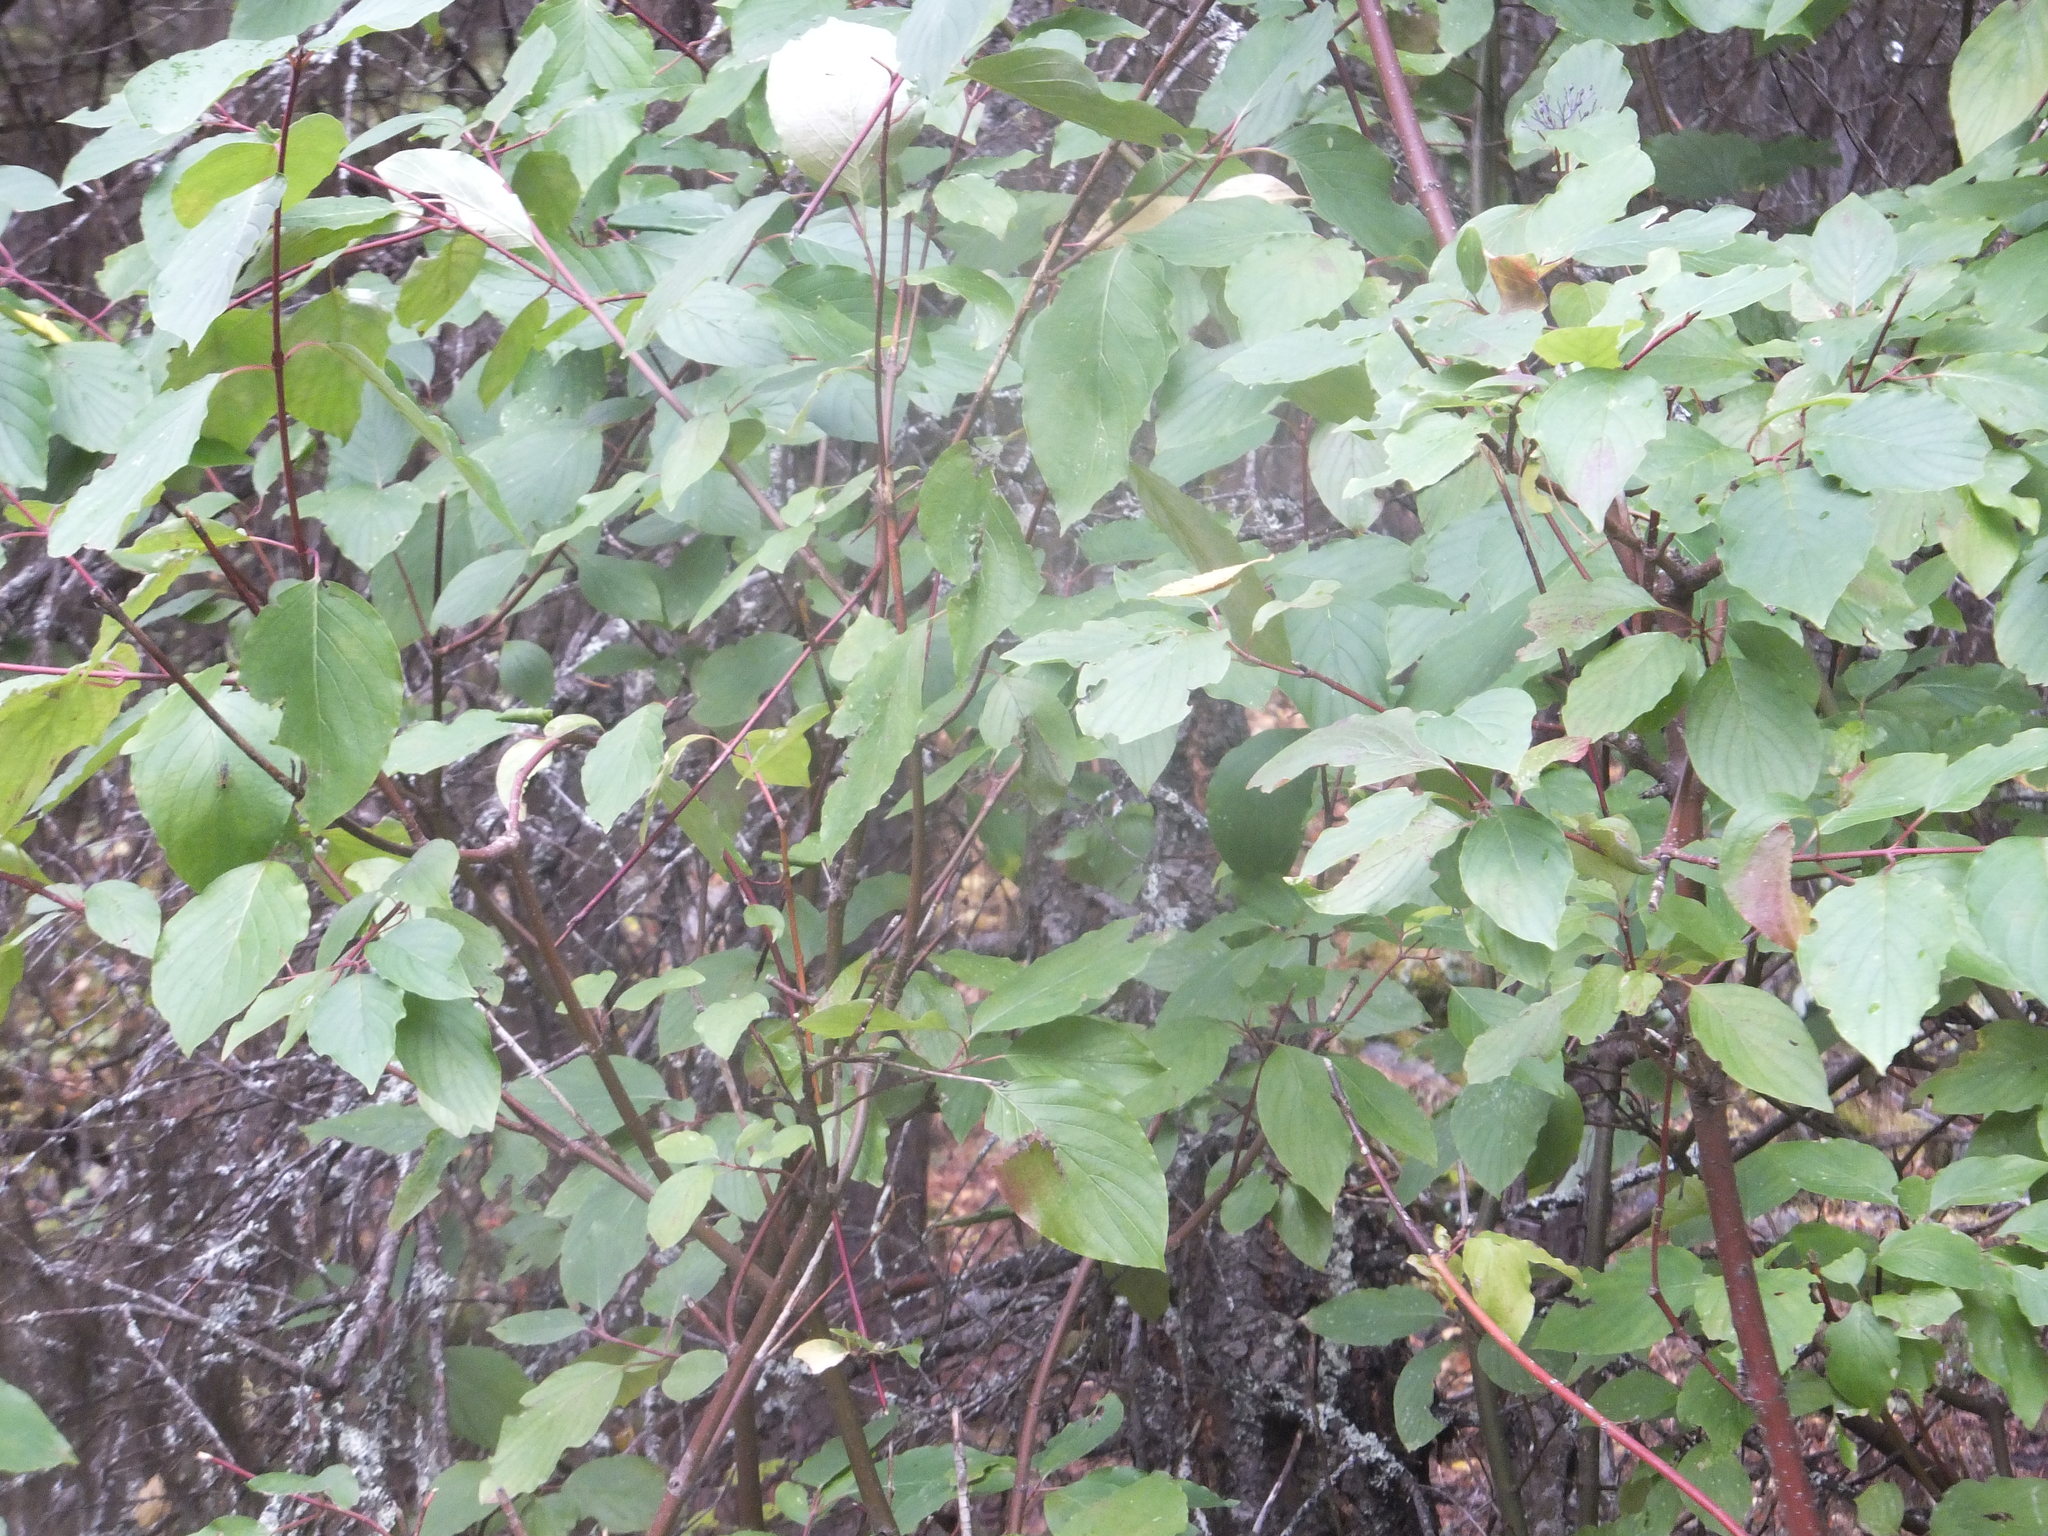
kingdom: Plantae
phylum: Tracheophyta
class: Magnoliopsida
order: Cornales
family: Cornaceae
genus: Cornus
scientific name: Cornus sericea
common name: Red-osier dogwood
